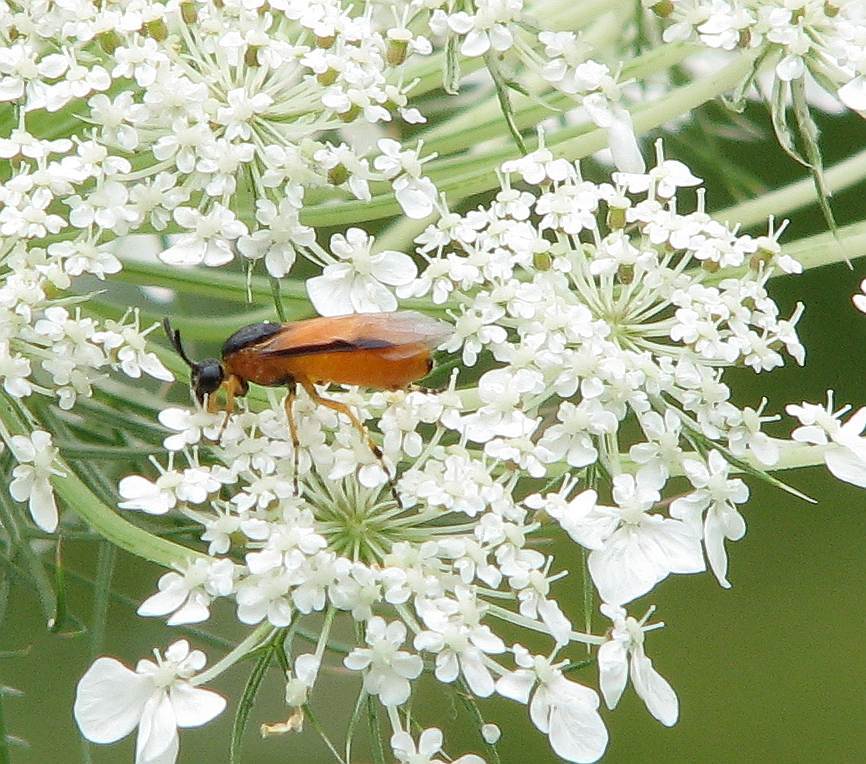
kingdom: Animalia
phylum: Arthropoda
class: Insecta
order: Hymenoptera
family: Argidae
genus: Arge
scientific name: Arge ochropus
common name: Argid sawfly
